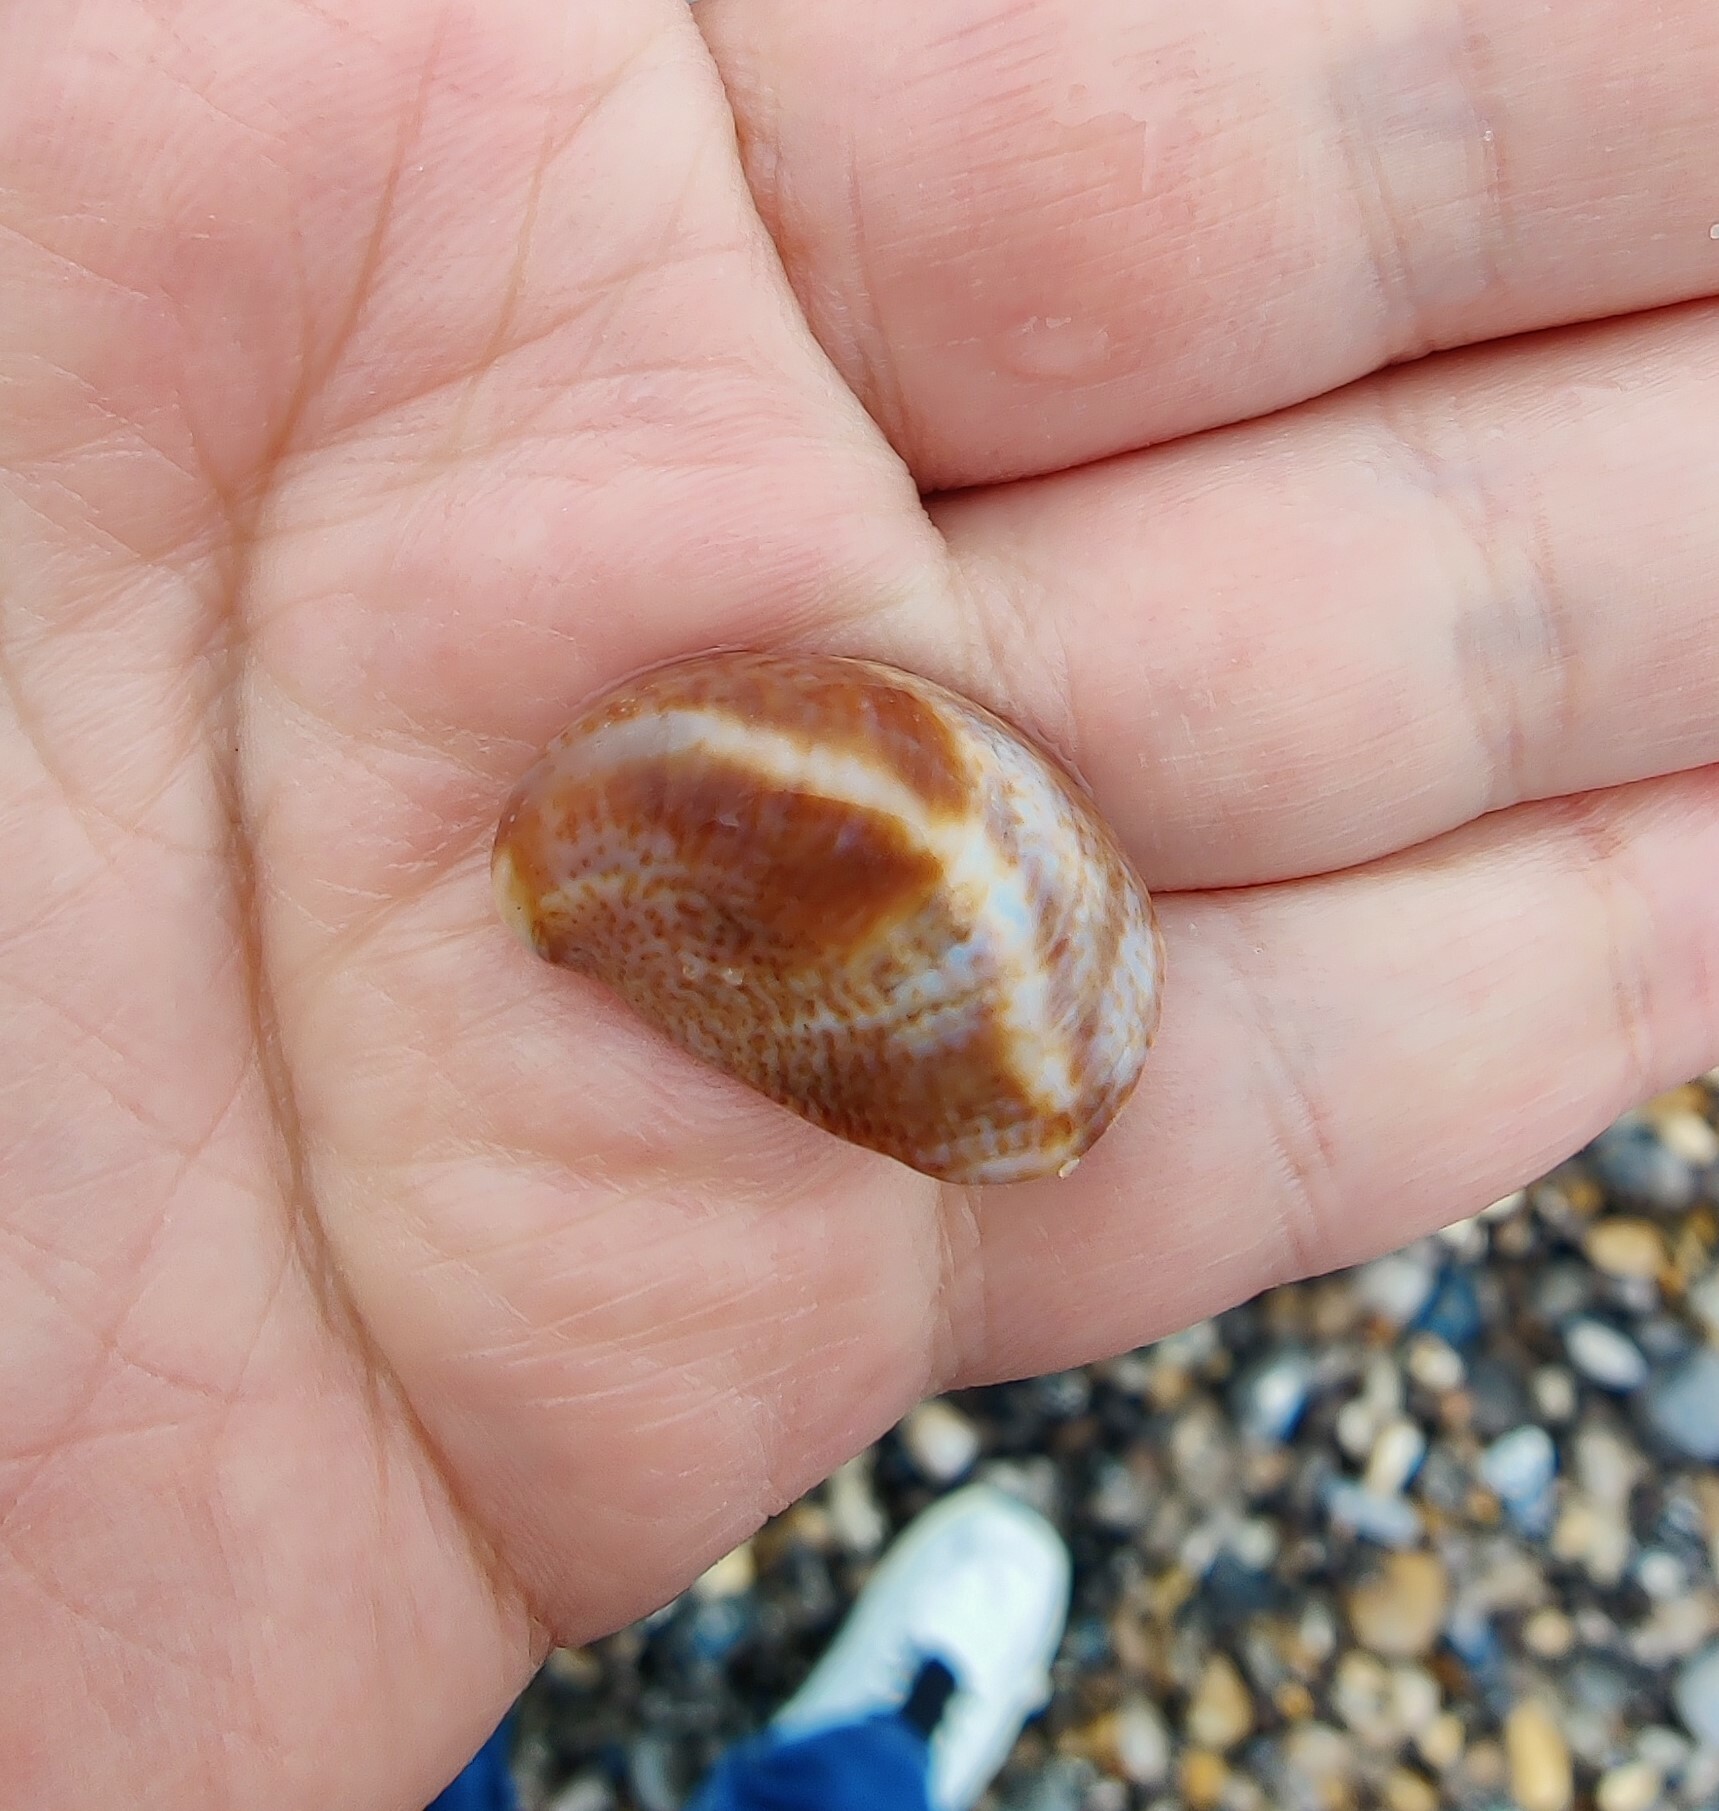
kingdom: Animalia
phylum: Mollusca
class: Gastropoda
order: Littorinimorpha
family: Calyptraeidae
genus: Crepidula
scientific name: Crepidula fornicata
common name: Slipper limpet
